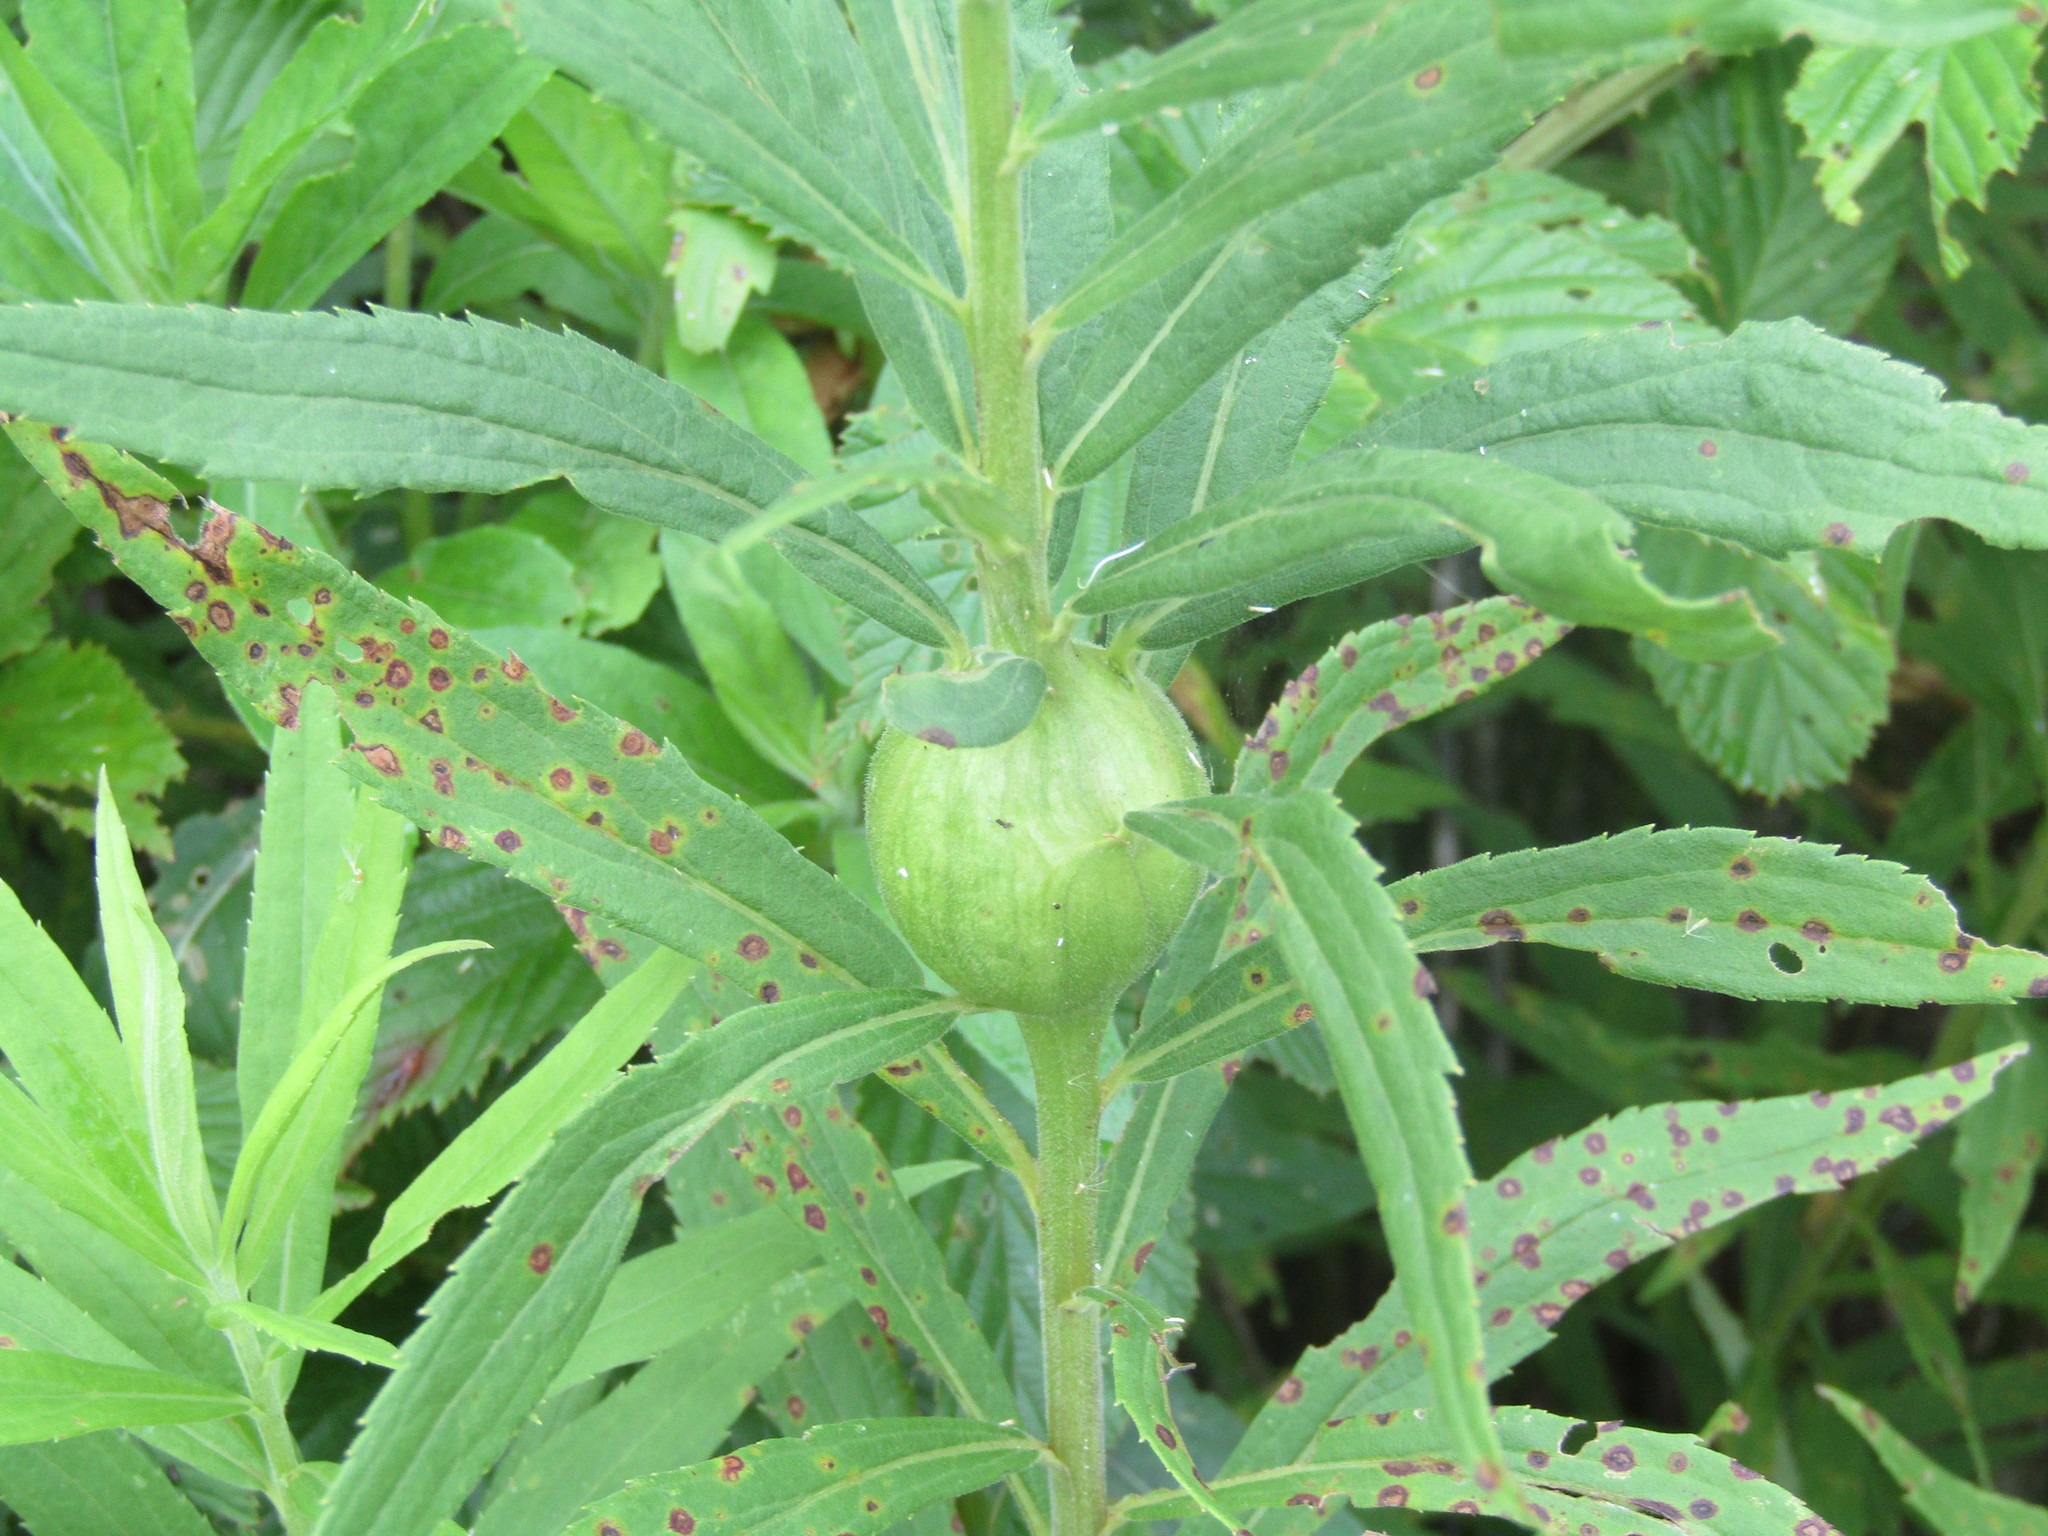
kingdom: Animalia
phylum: Arthropoda
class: Insecta
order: Diptera
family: Tephritidae
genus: Eurosta
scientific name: Eurosta solidaginis
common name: Goldenrod gall fly
